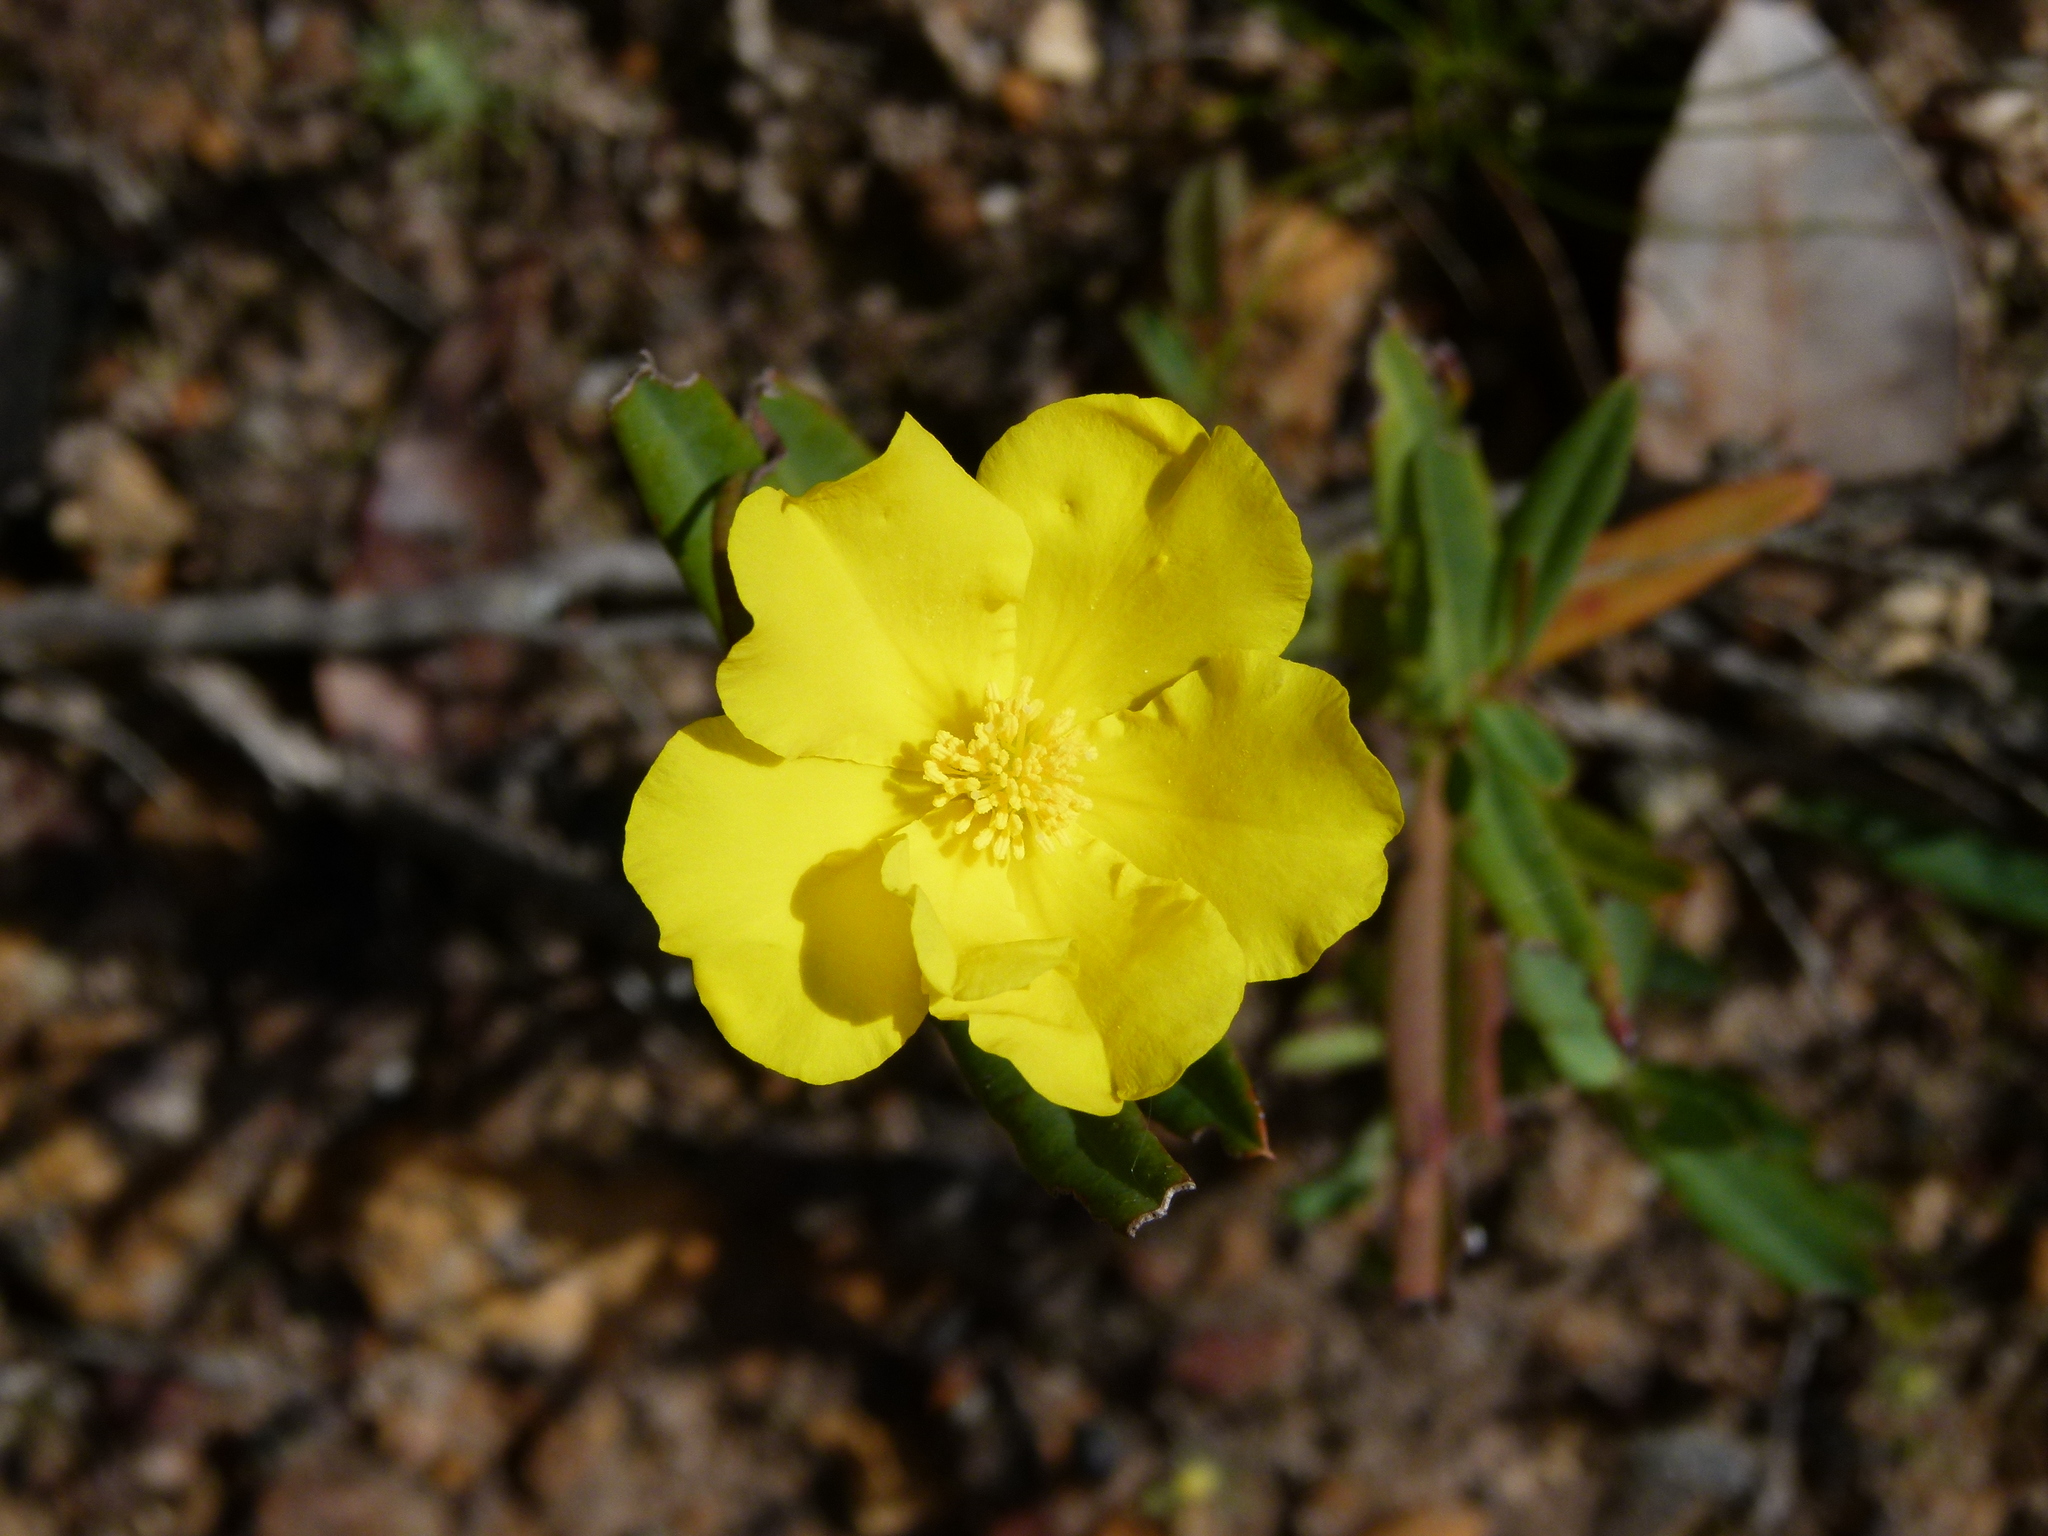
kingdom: Plantae
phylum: Tracheophyta
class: Magnoliopsida
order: Dilleniales
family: Dilleniaceae
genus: Hibbertia
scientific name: Hibbertia cunninghamii
